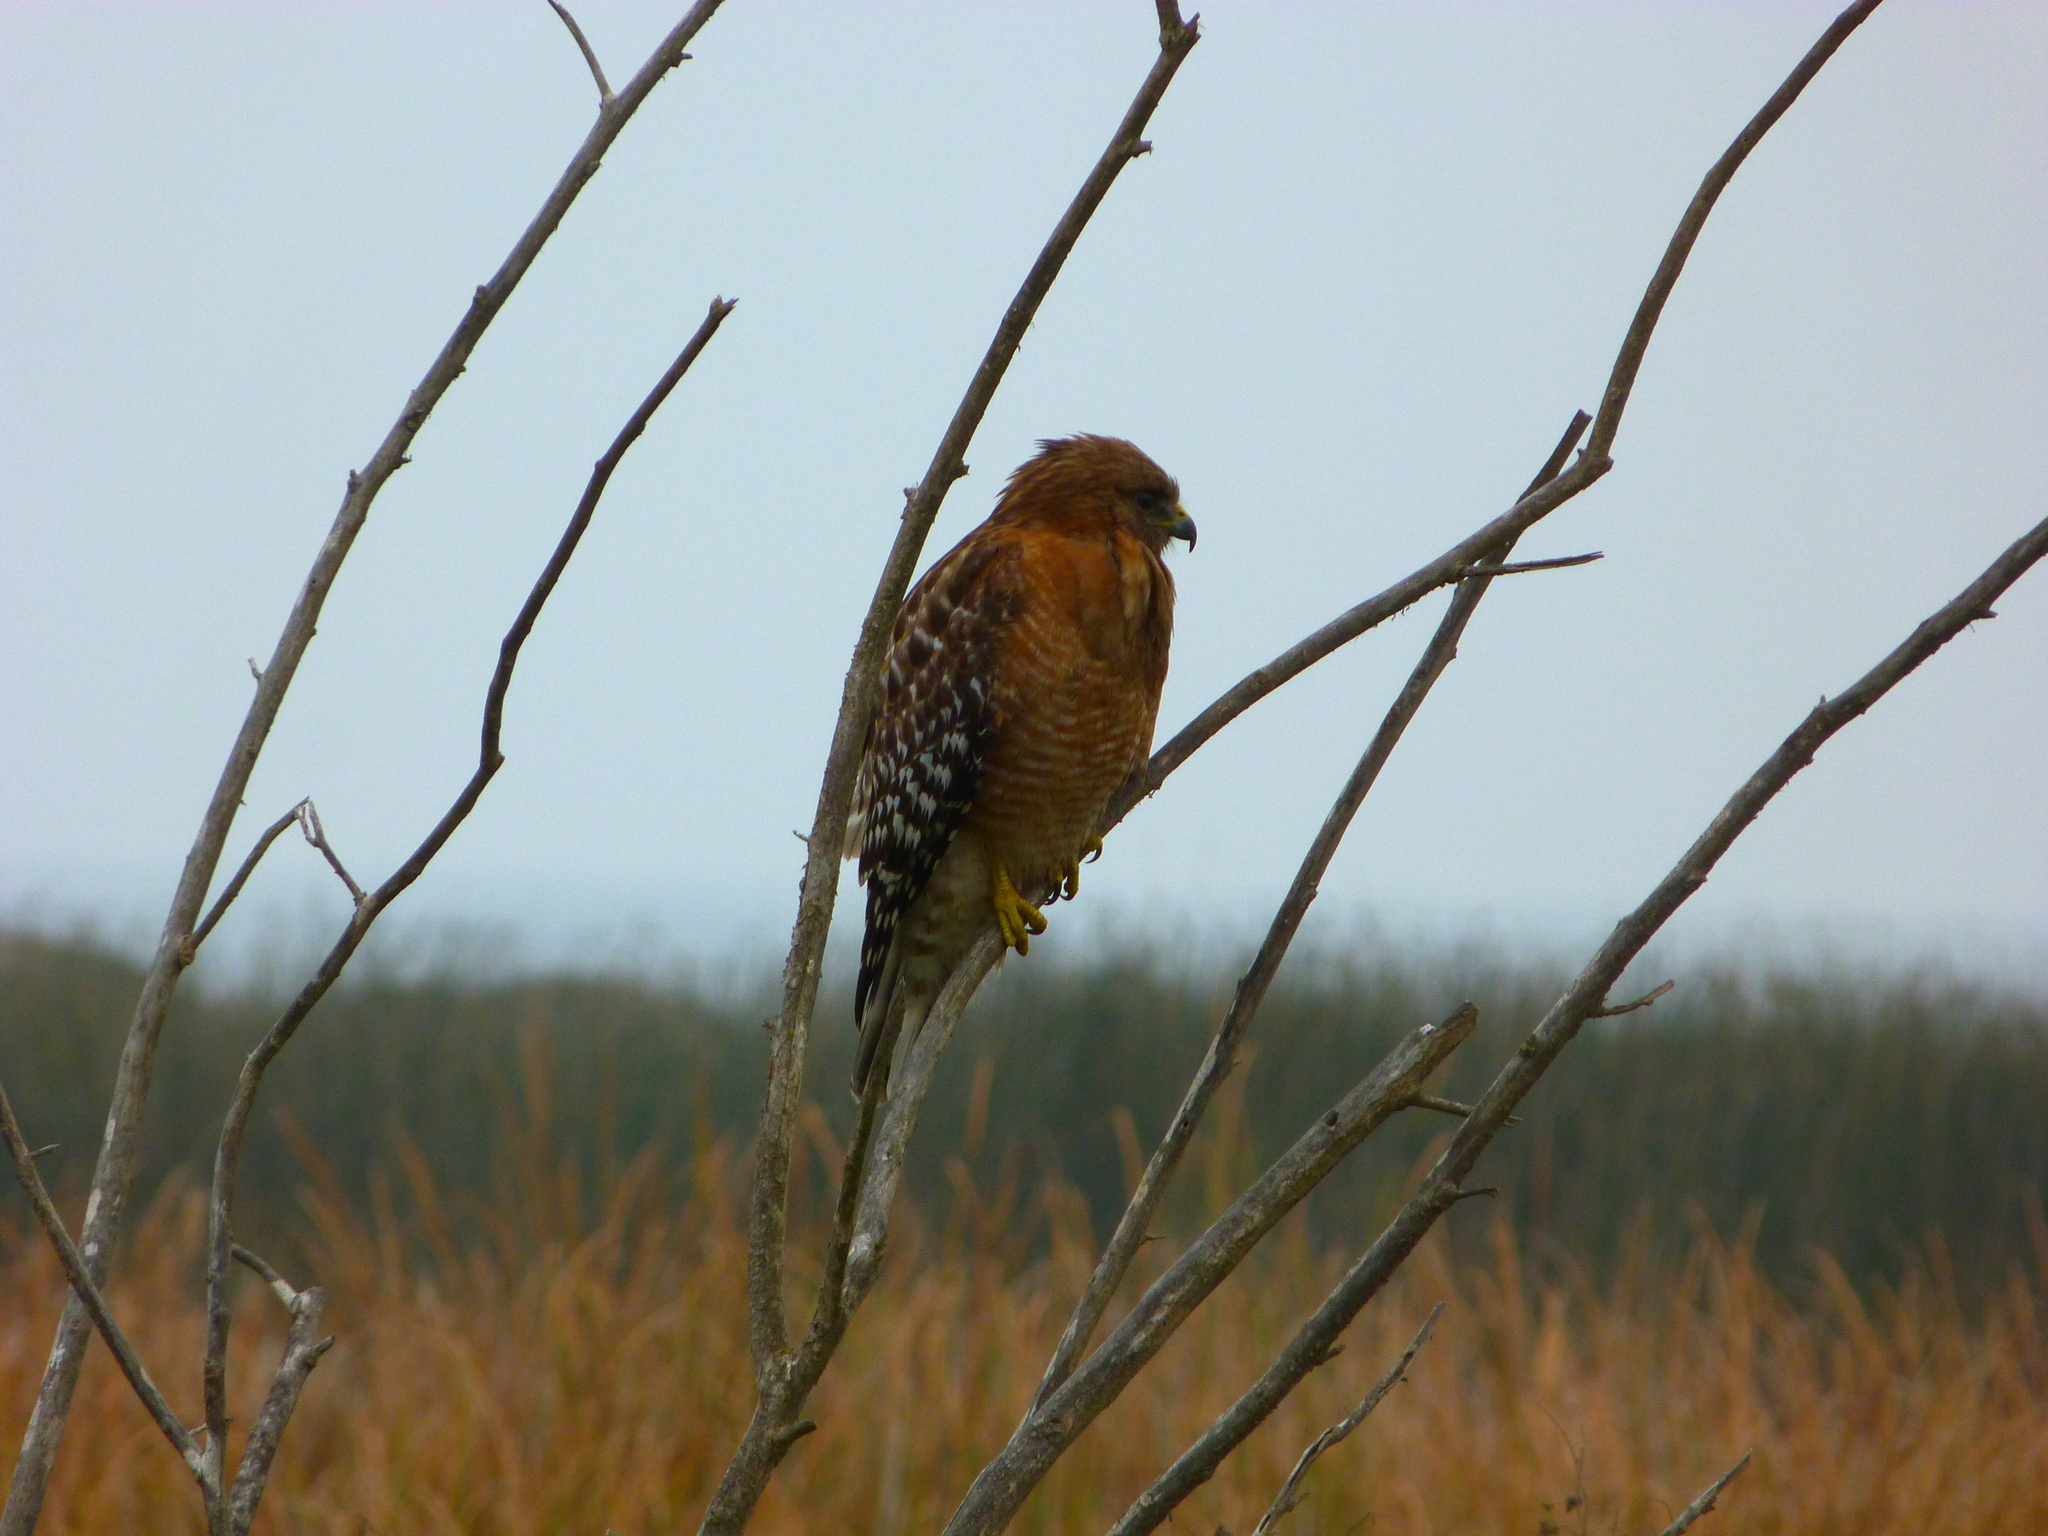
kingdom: Animalia
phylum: Chordata
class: Aves
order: Accipitriformes
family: Accipitridae
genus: Buteo
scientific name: Buteo lineatus
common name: Red-shouldered hawk
